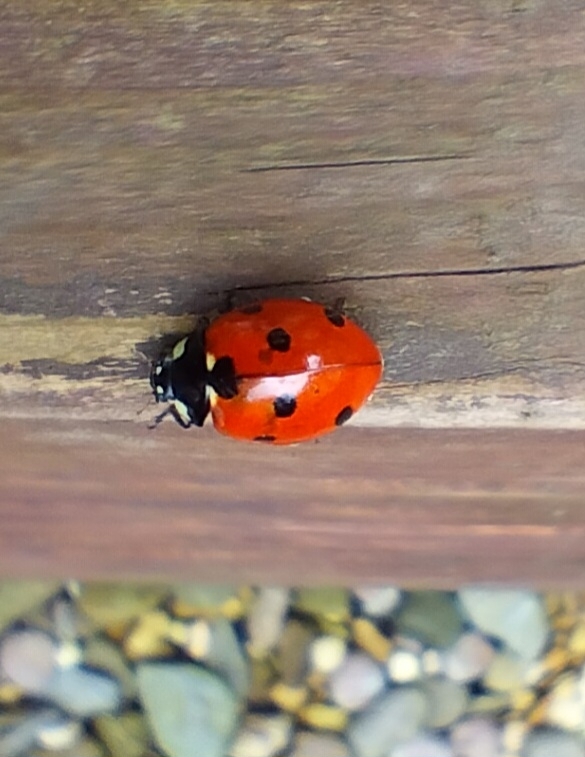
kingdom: Animalia
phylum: Arthropoda
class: Insecta
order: Coleoptera
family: Coccinellidae
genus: Coccinella
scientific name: Coccinella septempunctata
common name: Sevenspotted lady beetle
